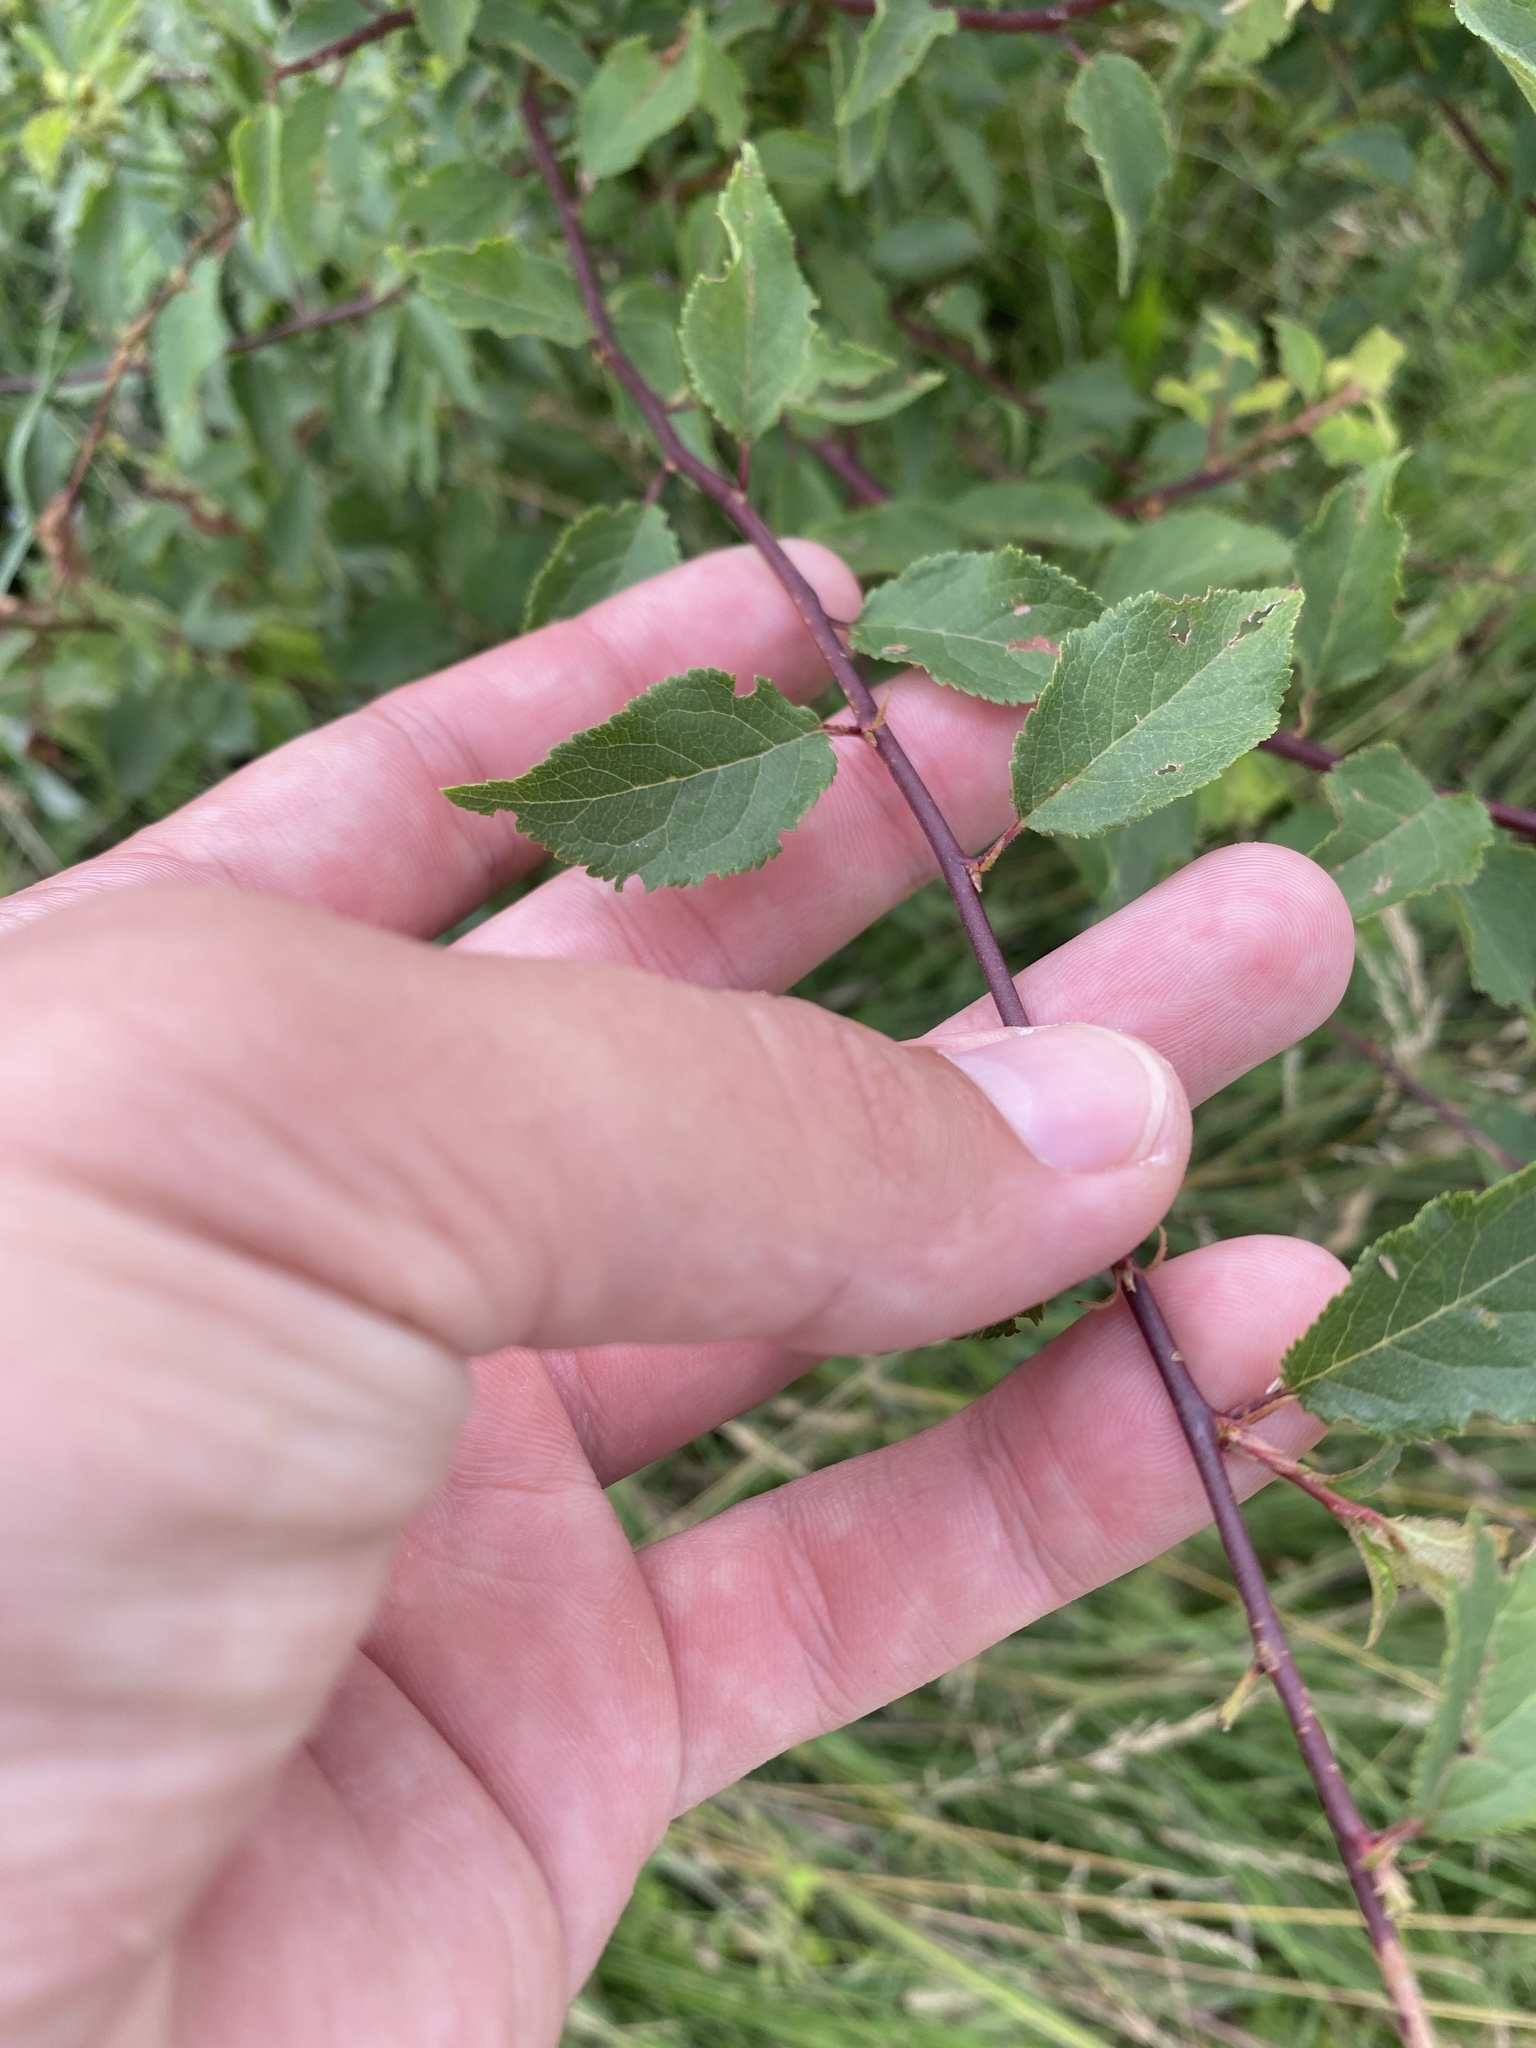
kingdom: Plantae
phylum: Tracheophyta
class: Magnoliopsida
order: Rosales
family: Rosaceae
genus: Prunus
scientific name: Prunus spinosa
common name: Blackthorn
